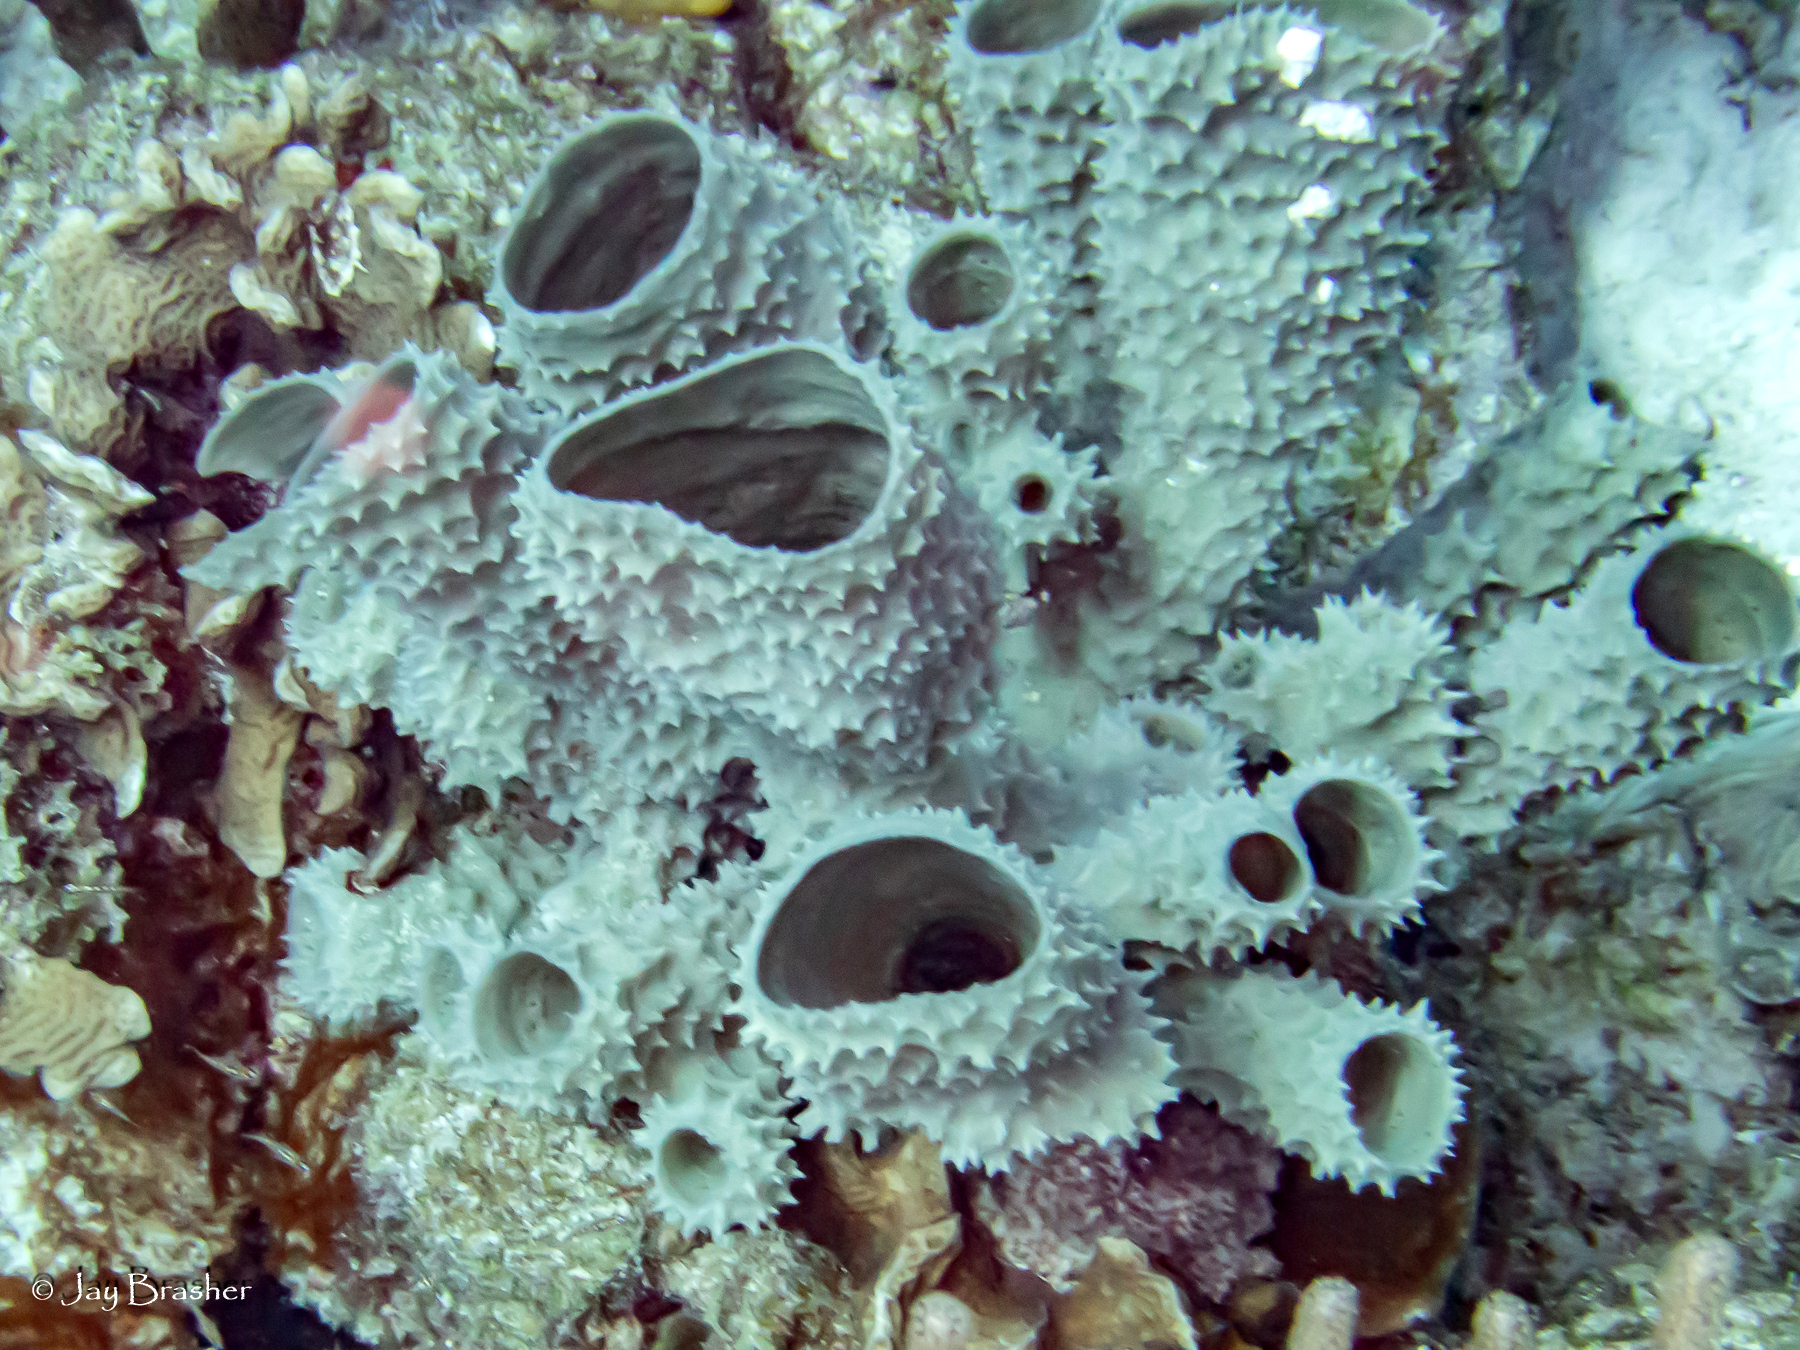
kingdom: Animalia
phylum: Porifera
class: Demospongiae
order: Haplosclerida
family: Callyspongiidae
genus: Callyspongia
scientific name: Callyspongia aculeata
